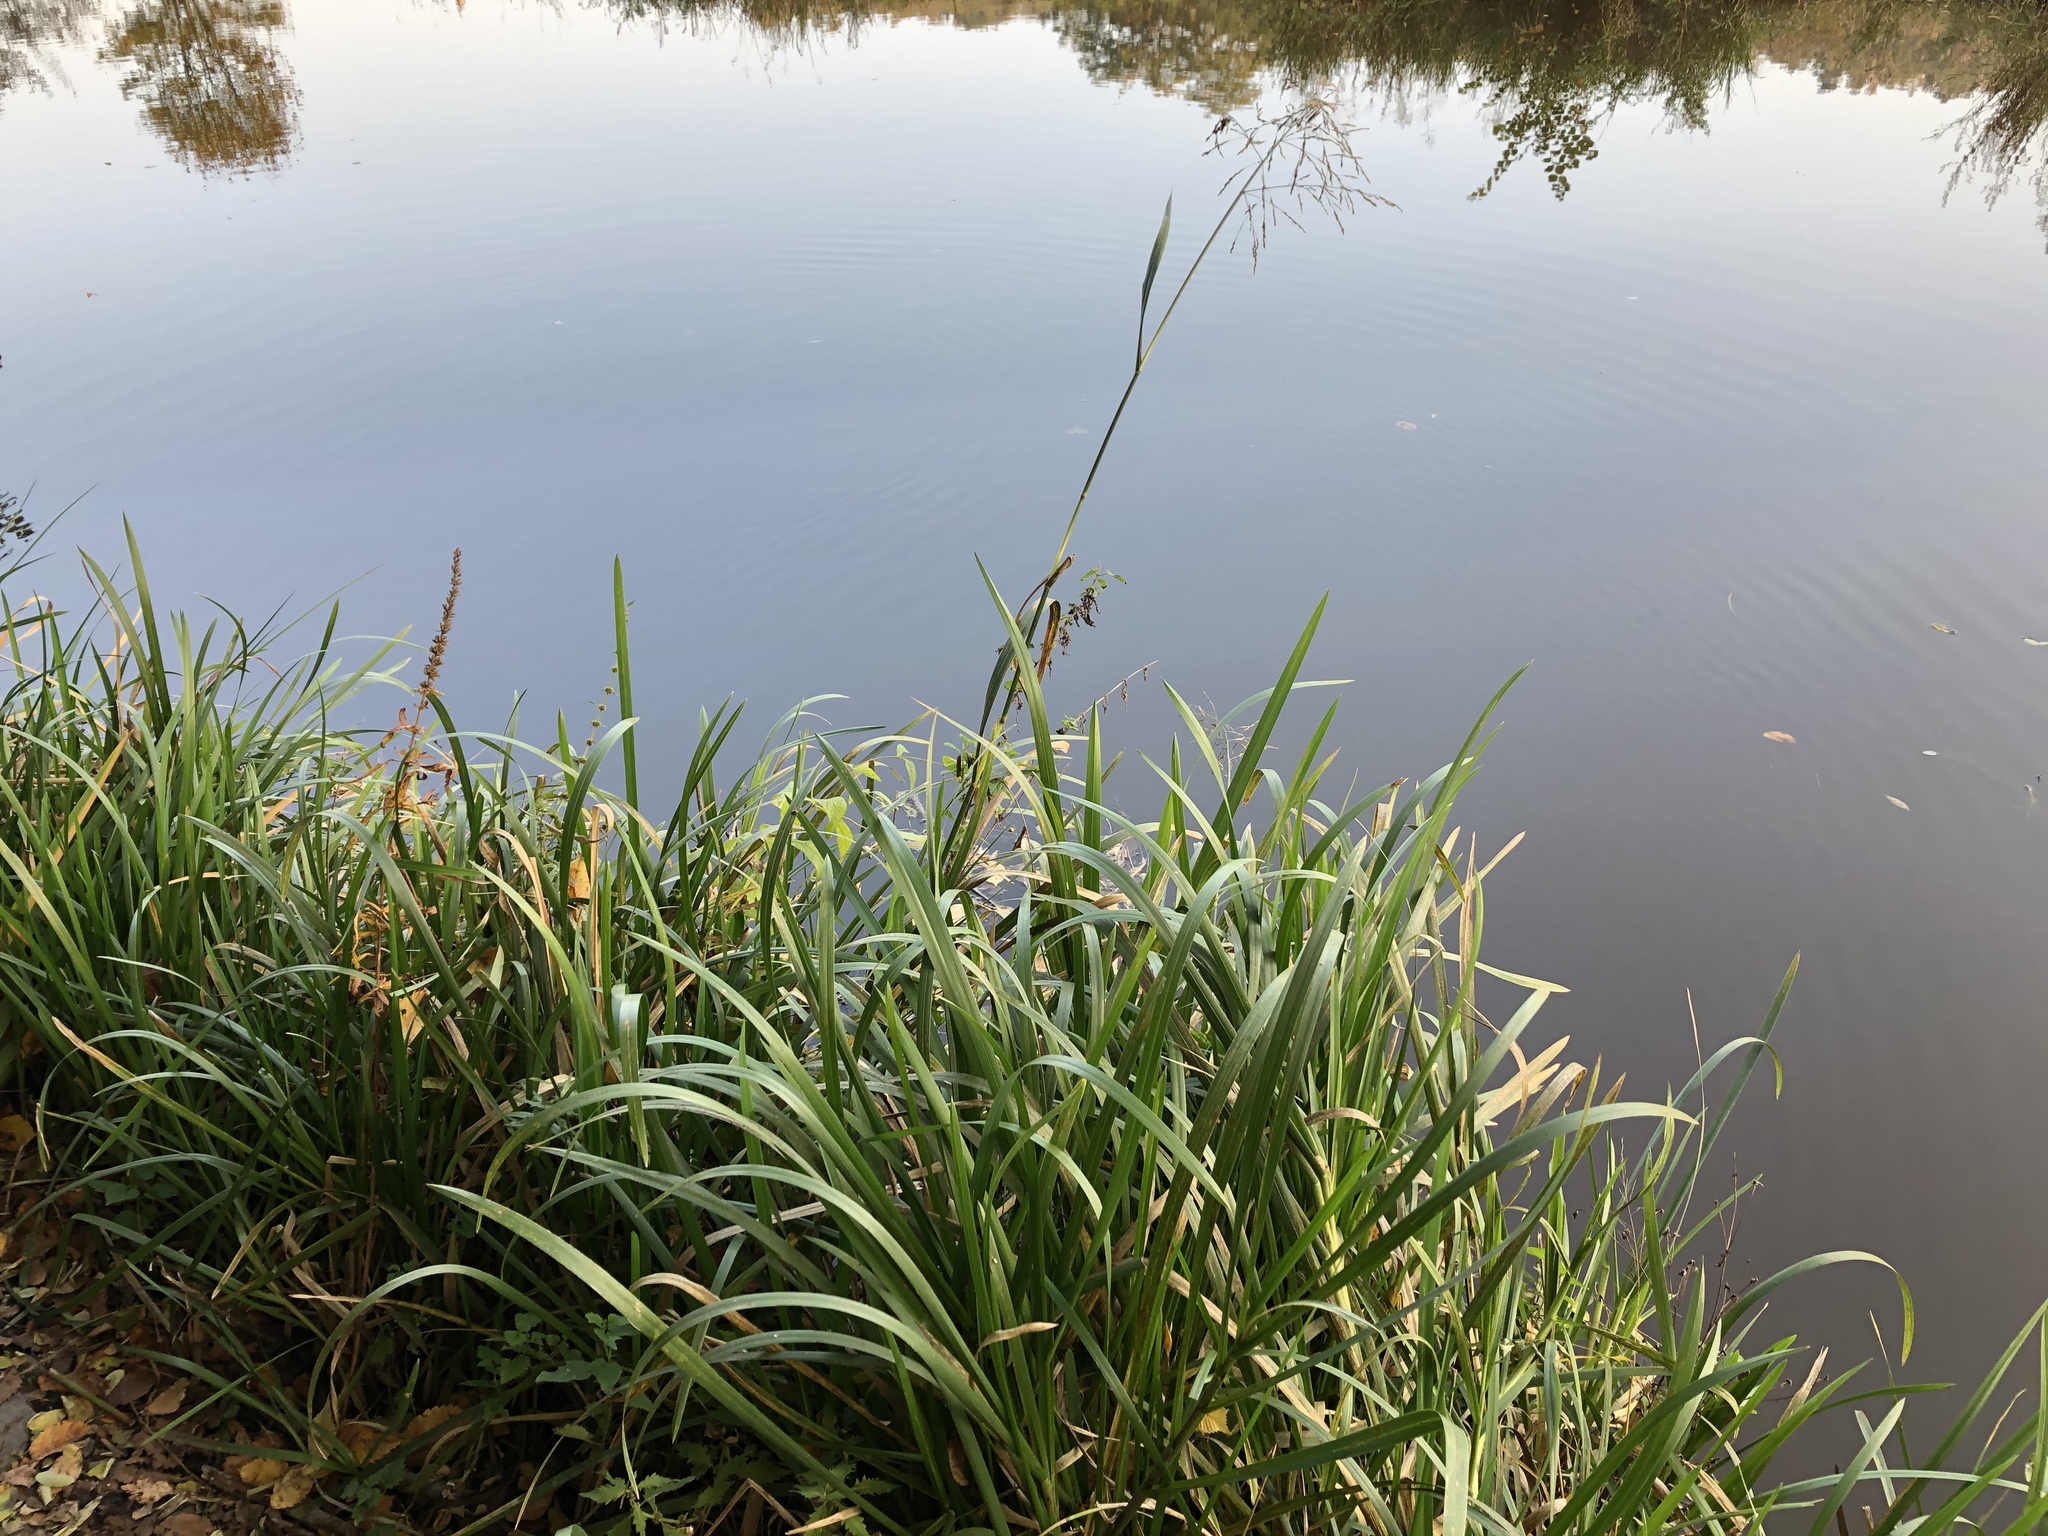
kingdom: Plantae
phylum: Tracheophyta
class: Liliopsida
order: Poales
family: Poaceae
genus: Glyceria
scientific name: Glyceria maxima
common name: Reed mannagrass
